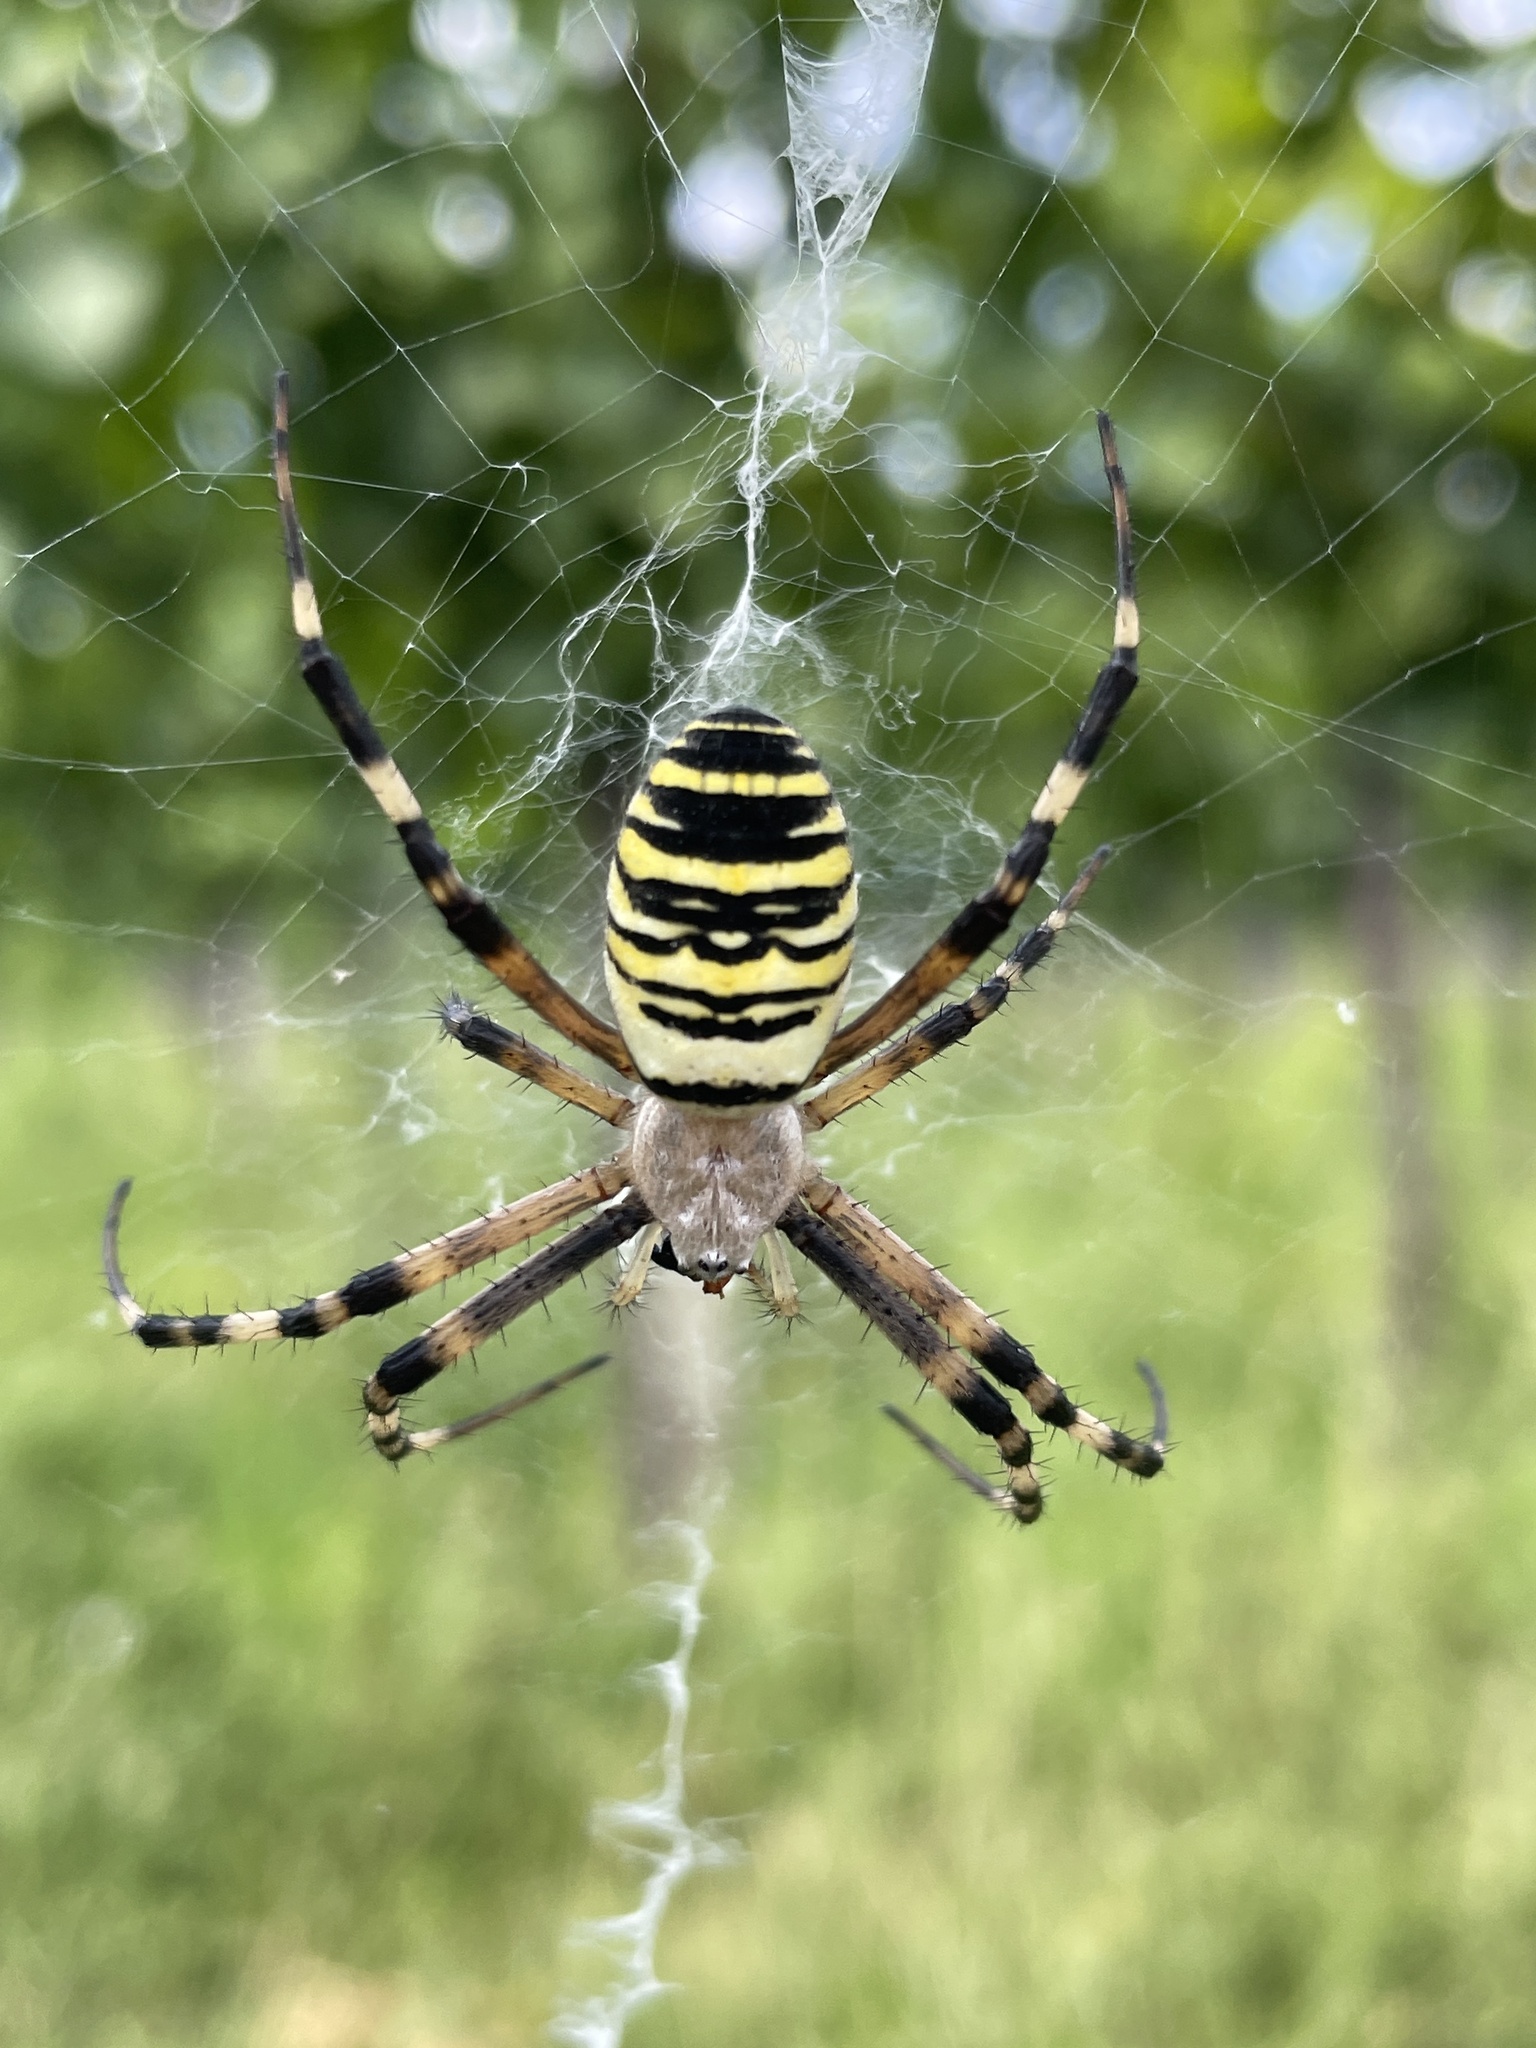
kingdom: Animalia
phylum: Arthropoda
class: Arachnida
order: Araneae
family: Araneidae
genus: Argiope
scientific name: Argiope bruennichi
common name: Wasp spider
